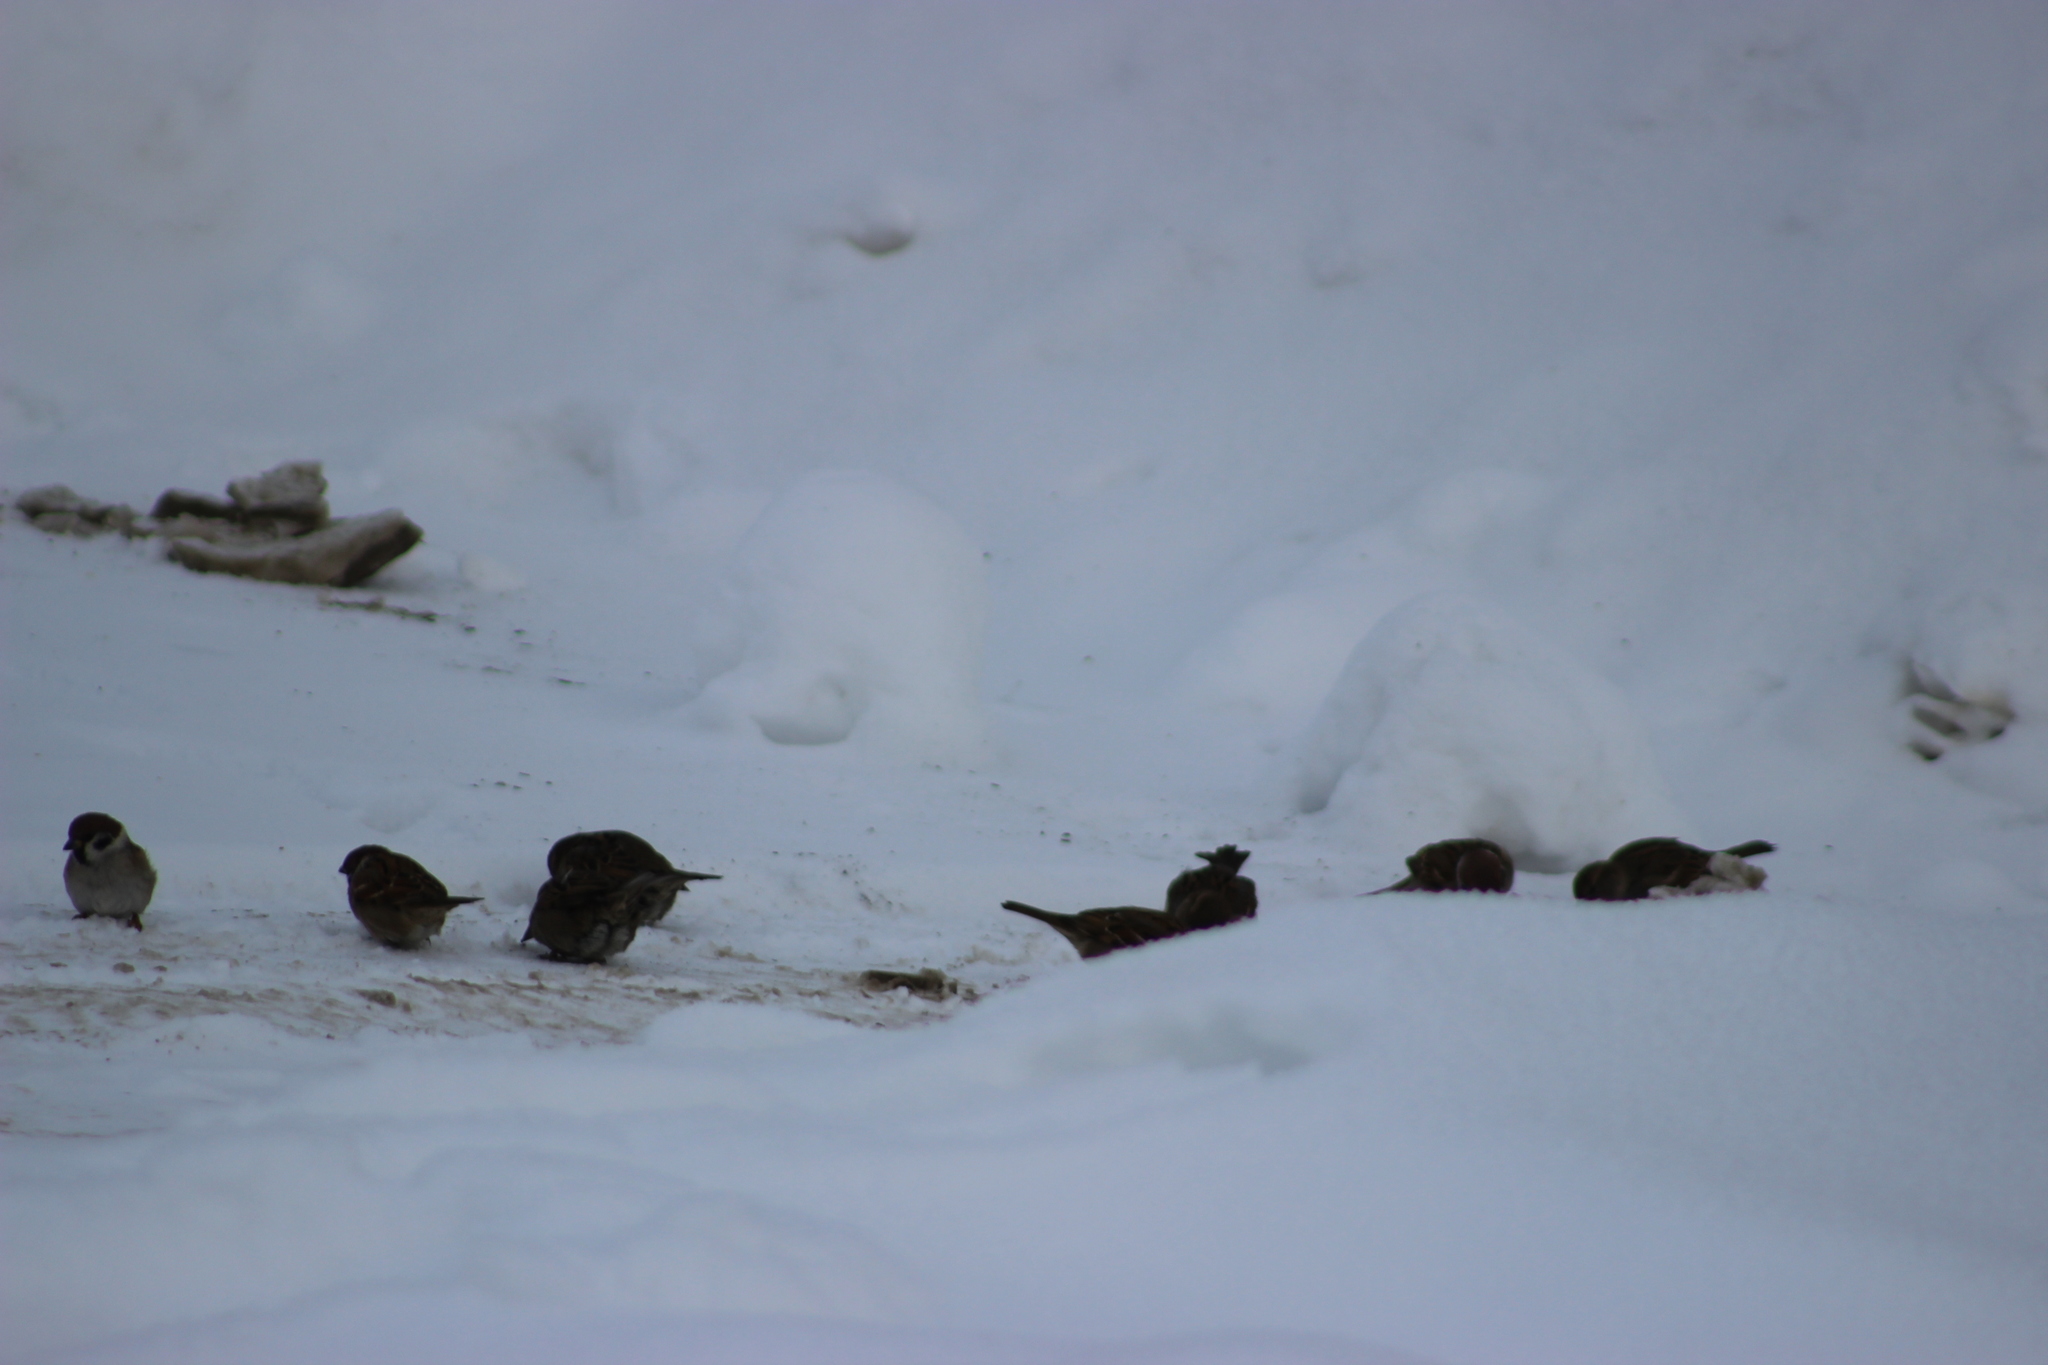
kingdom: Animalia
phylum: Chordata
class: Aves
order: Passeriformes
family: Passeridae
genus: Passer
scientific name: Passer montanus
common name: Eurasian tree sparrow
